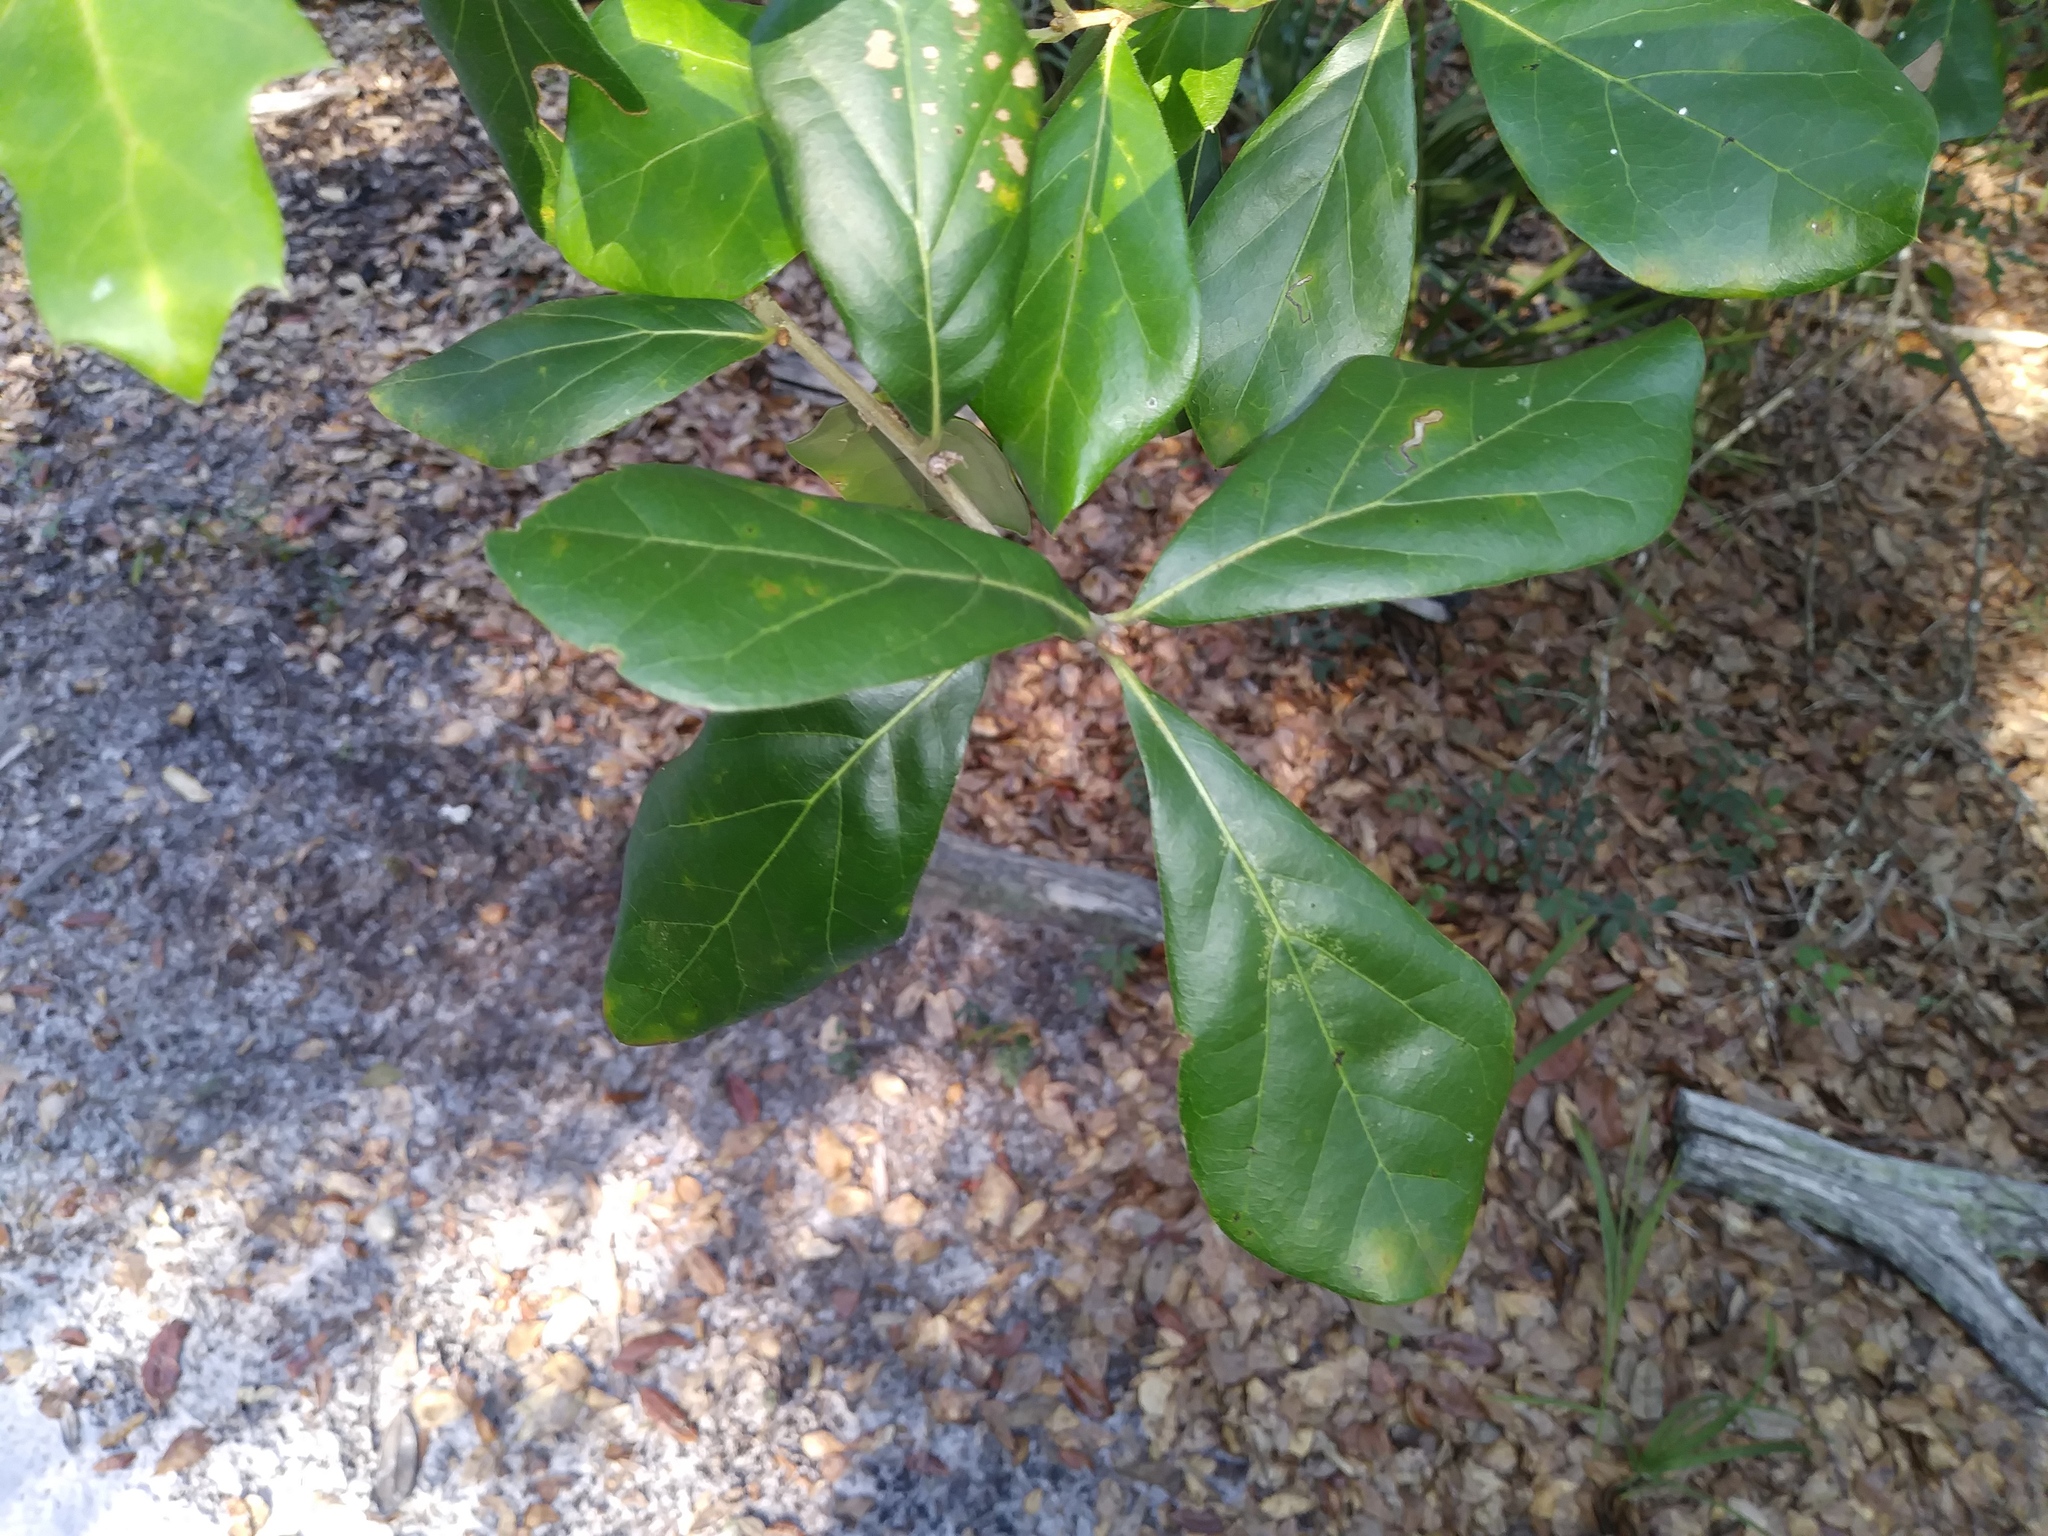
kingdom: Plantae
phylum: Tracheophyta
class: Magnoliopsida
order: Fagales
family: Fagaceae
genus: Quercus
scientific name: Quercus nigra
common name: Water oak
